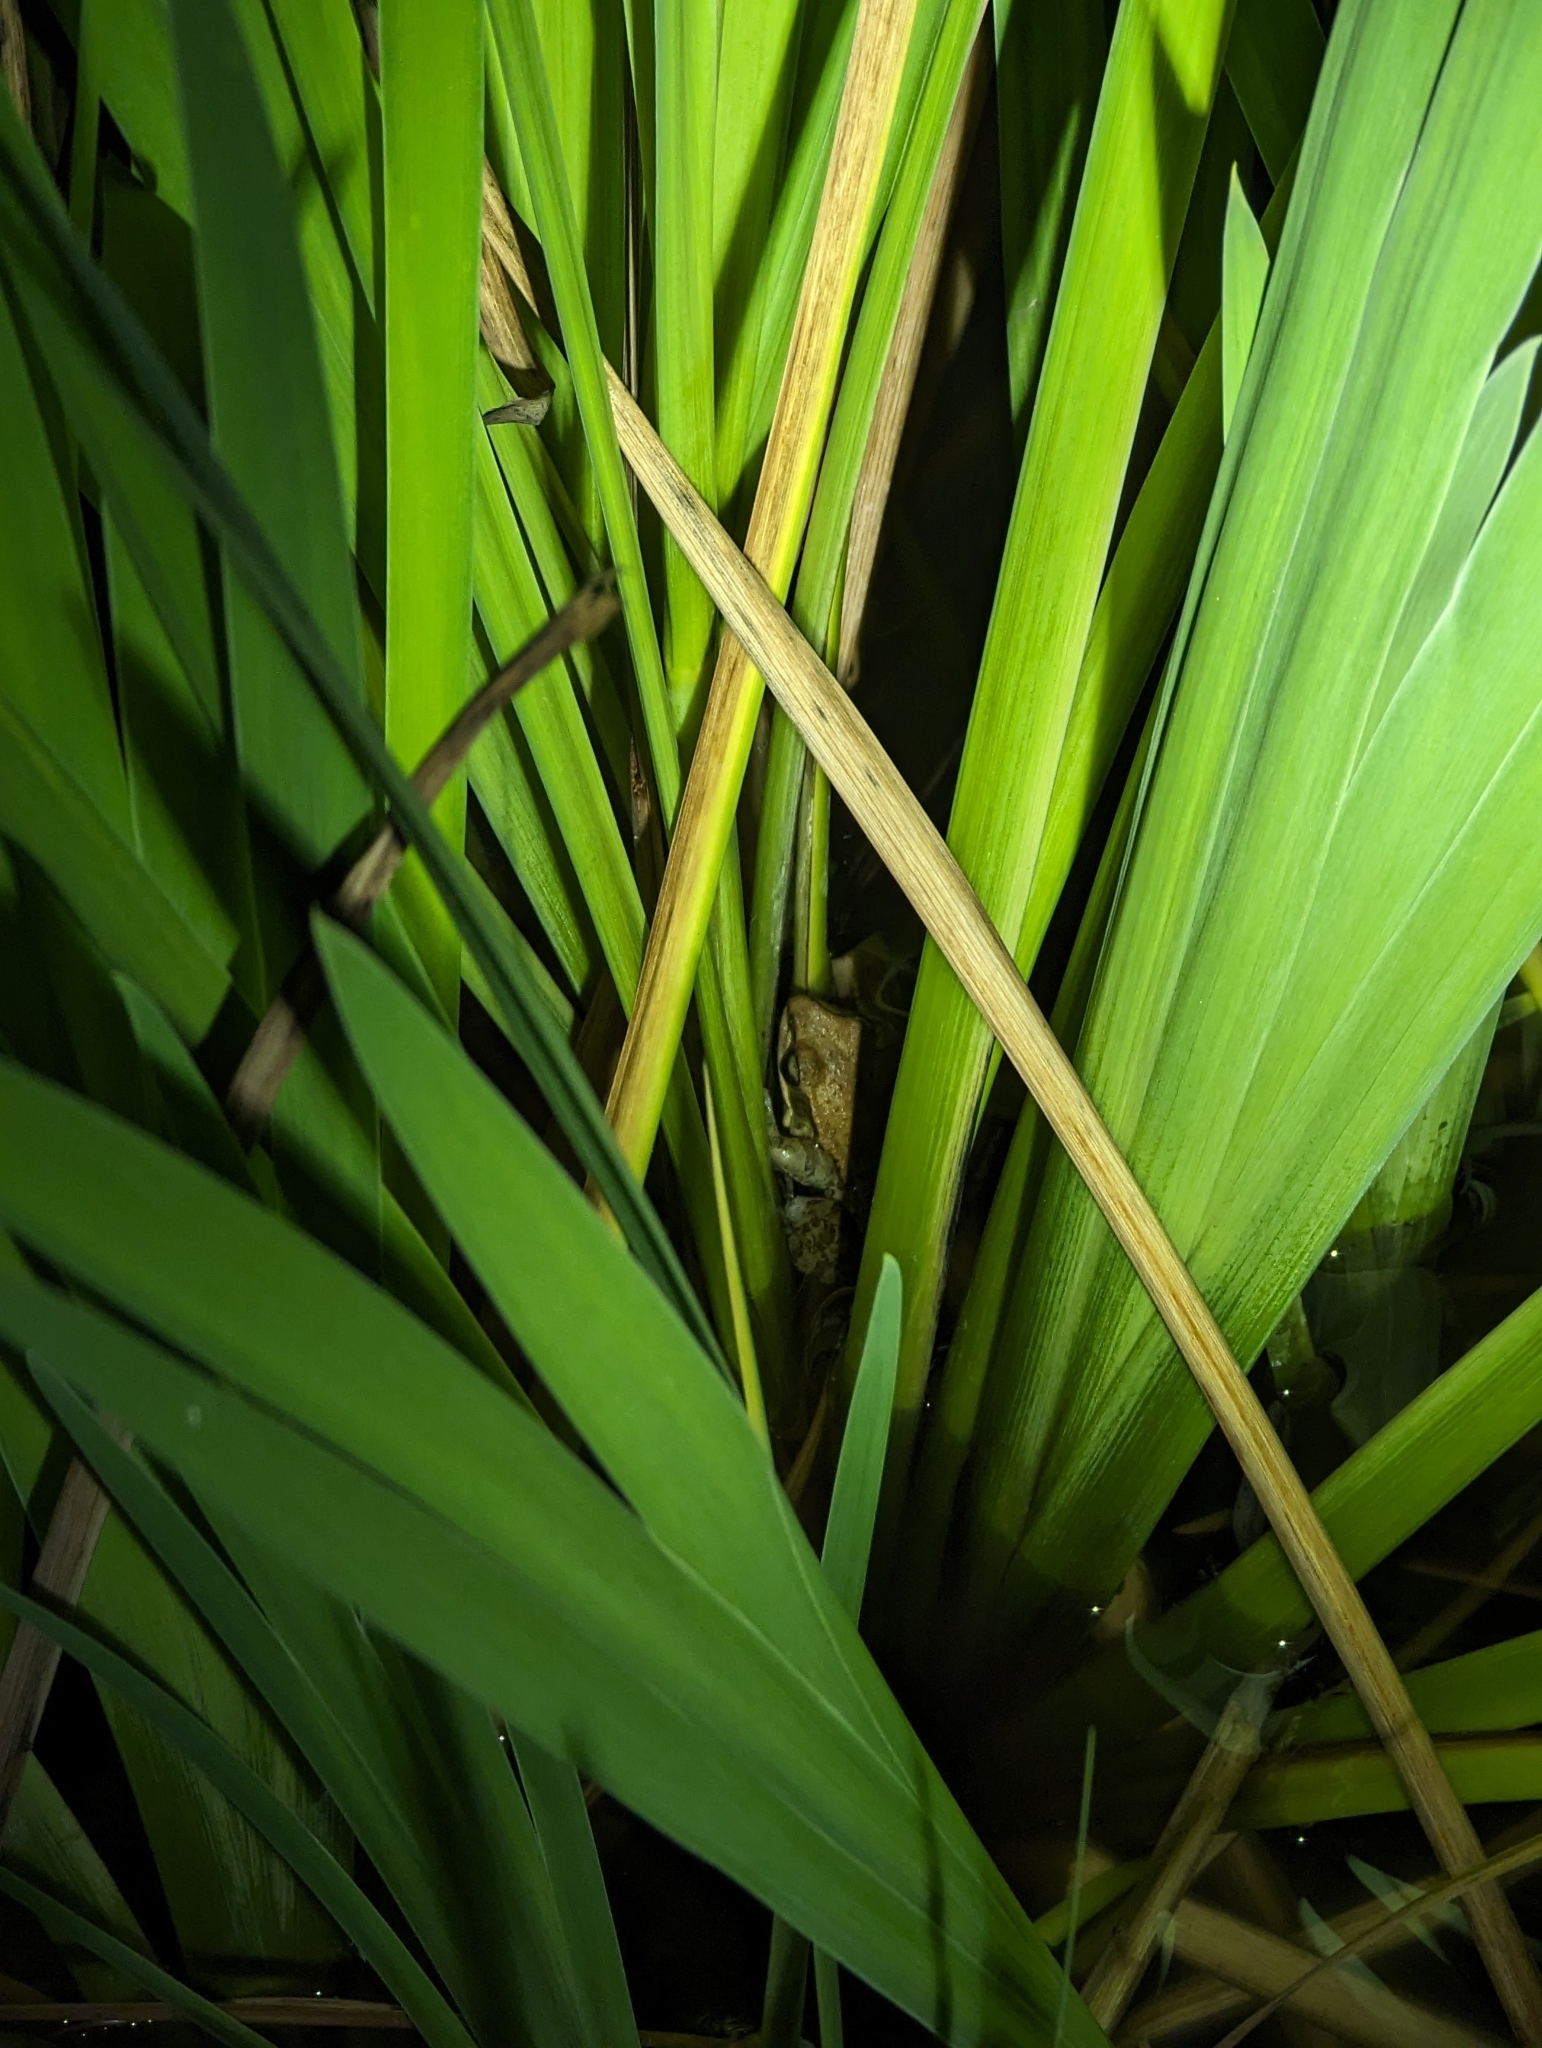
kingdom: Animalia
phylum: Chordata
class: Amphibia
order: Anura
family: Ranidae
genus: Hylarana
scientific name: Hylarana latouchii
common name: Broad-folded frog
